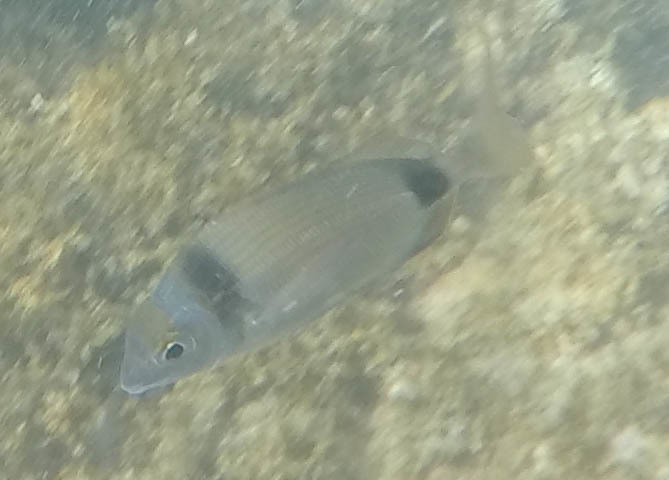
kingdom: Animalia
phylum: Chordata
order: Perciformes
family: Sparidae
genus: Diplodus
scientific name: Diplodus vulgaris
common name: Common two-banded seabream
